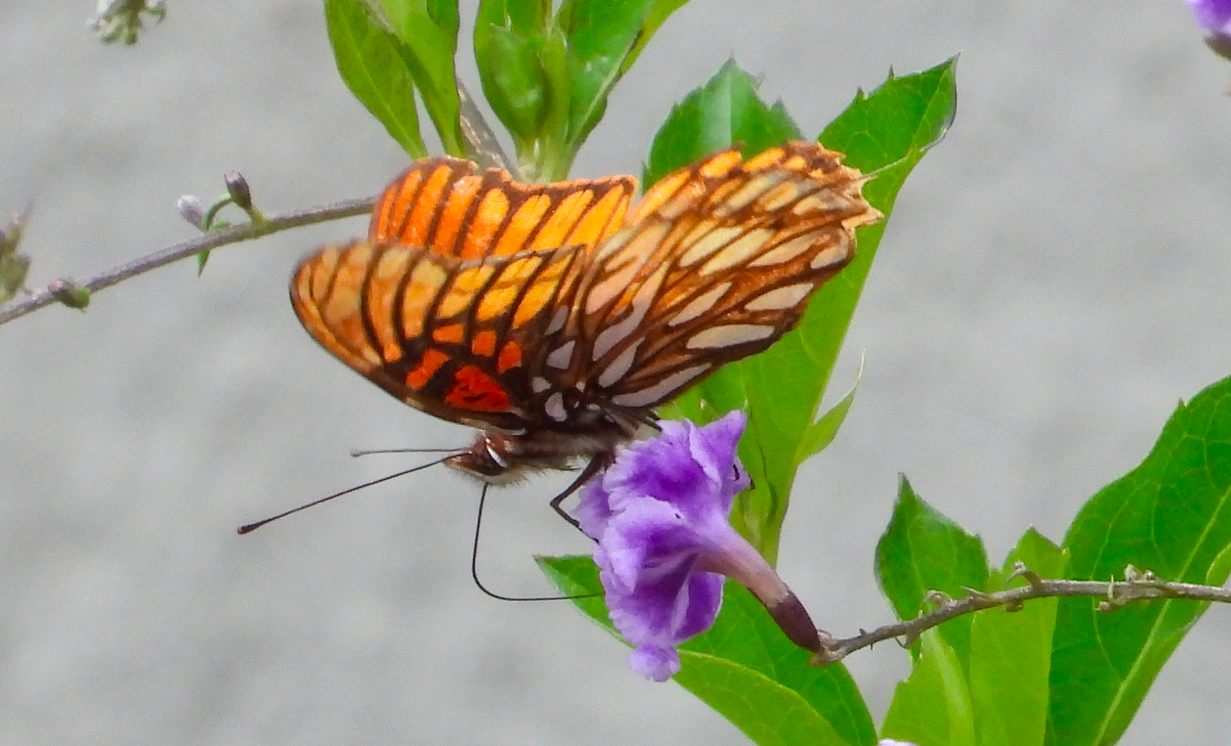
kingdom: Animalia
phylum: Arthropoda
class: Insecta
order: Lepidoptera
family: Nymphalidae
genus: Dione
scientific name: Dione moneta
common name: Mexican silverspot
